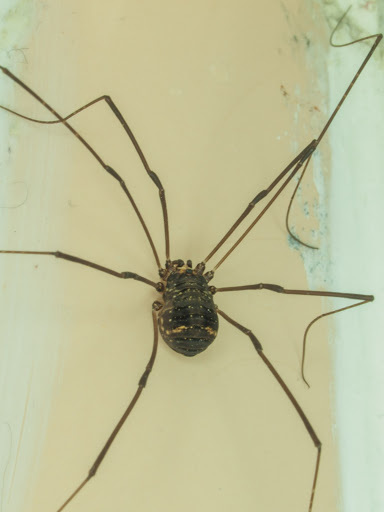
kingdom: Animalia
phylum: Arthropoda
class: Arachnida
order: Opiliones
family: Sclerosomatidae
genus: Leiobunum
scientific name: Leiobunum exilipes
